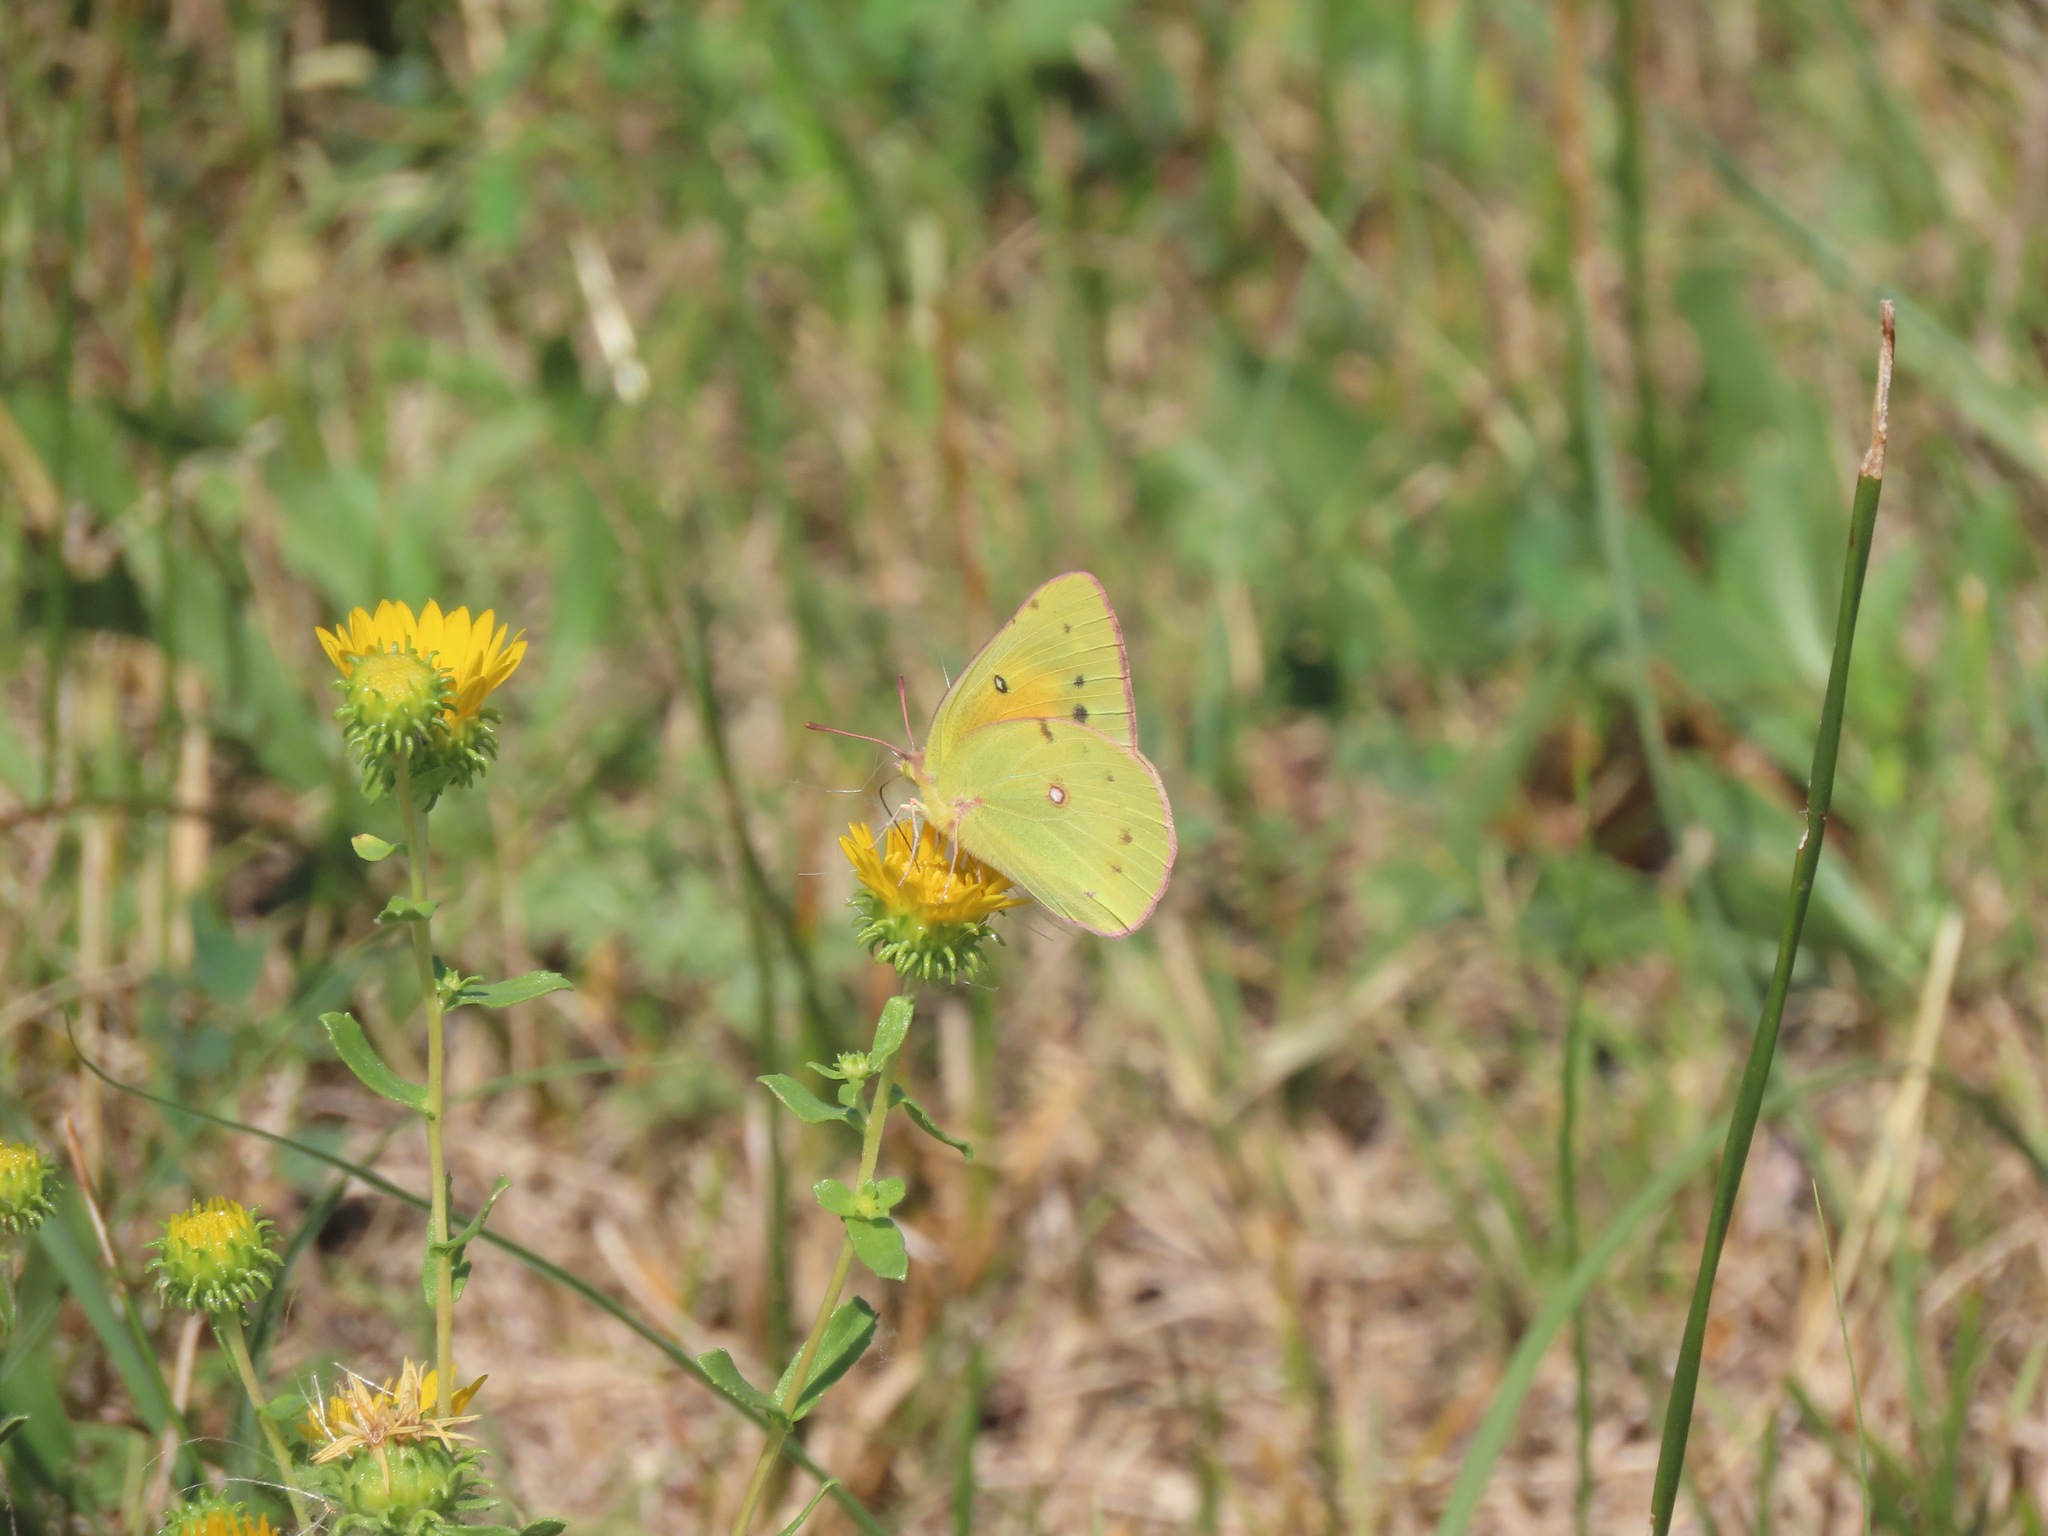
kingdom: Animalia
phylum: Arthropoda
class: Insecta
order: Lepidoptera
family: Pieridae
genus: Colias
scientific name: Colias eurytheme
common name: Alfalfa butterfly
